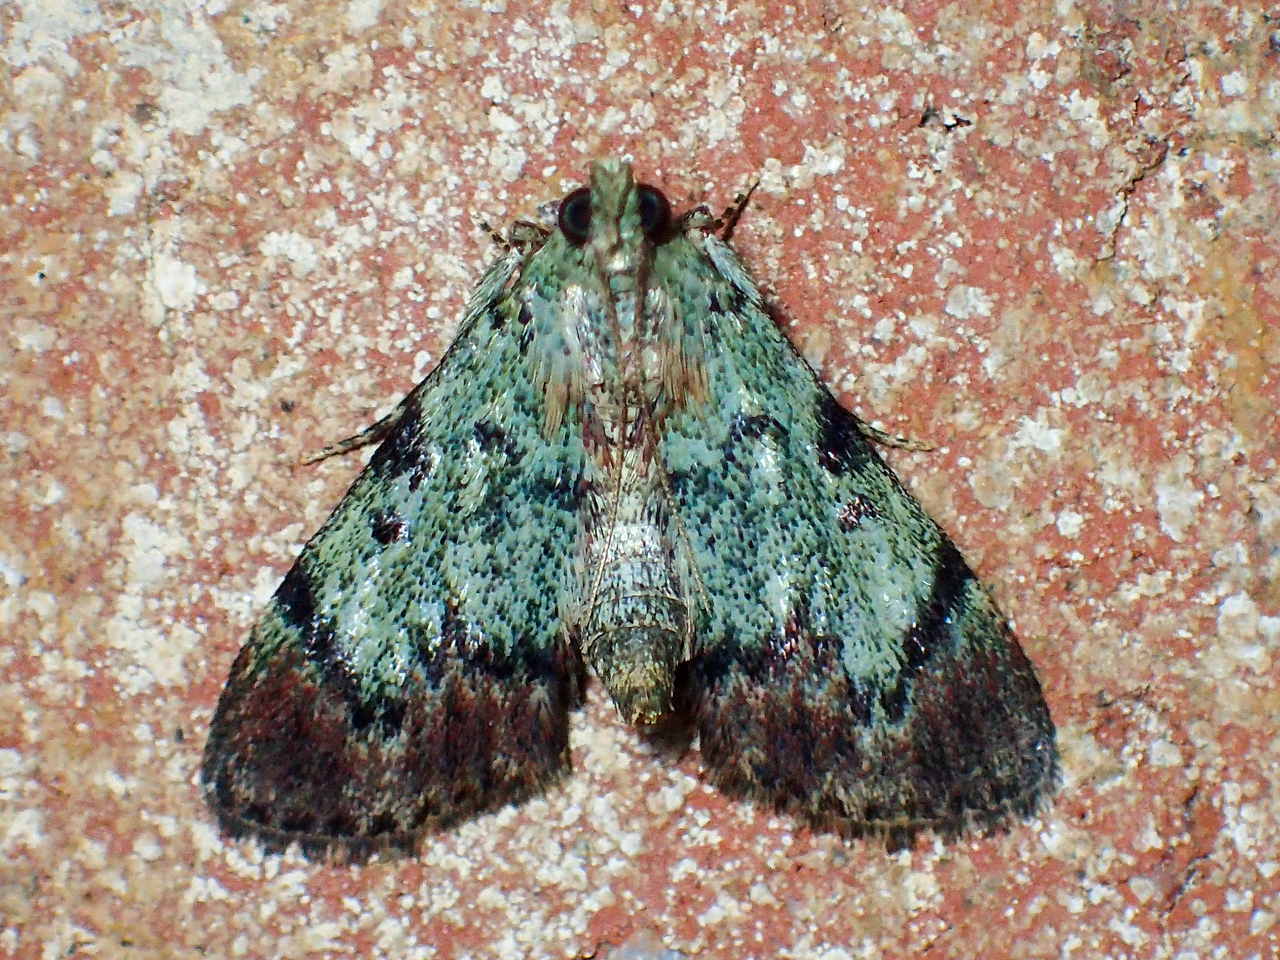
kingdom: Animalia
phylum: Arthropoda
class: Insecta
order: Lepidoptera
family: Pyralidae
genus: Epipaschia
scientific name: Epipaschia superatalis
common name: Dimorphic macalla moth
